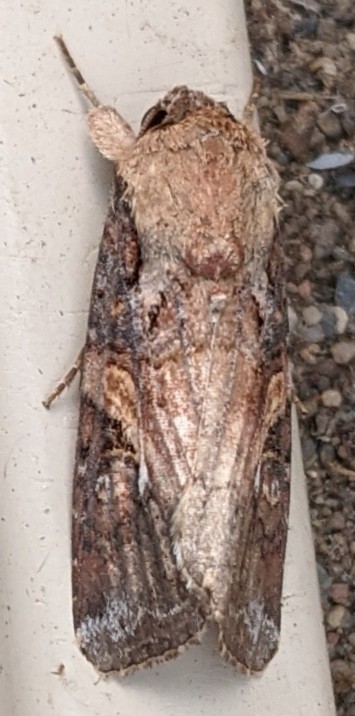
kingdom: Animalia
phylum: Arthropoda
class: Insecta
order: Lepidoptera
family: Noctuidae
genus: Spodoptera
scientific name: Spodoptera frugiperda
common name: Fall armyworm
